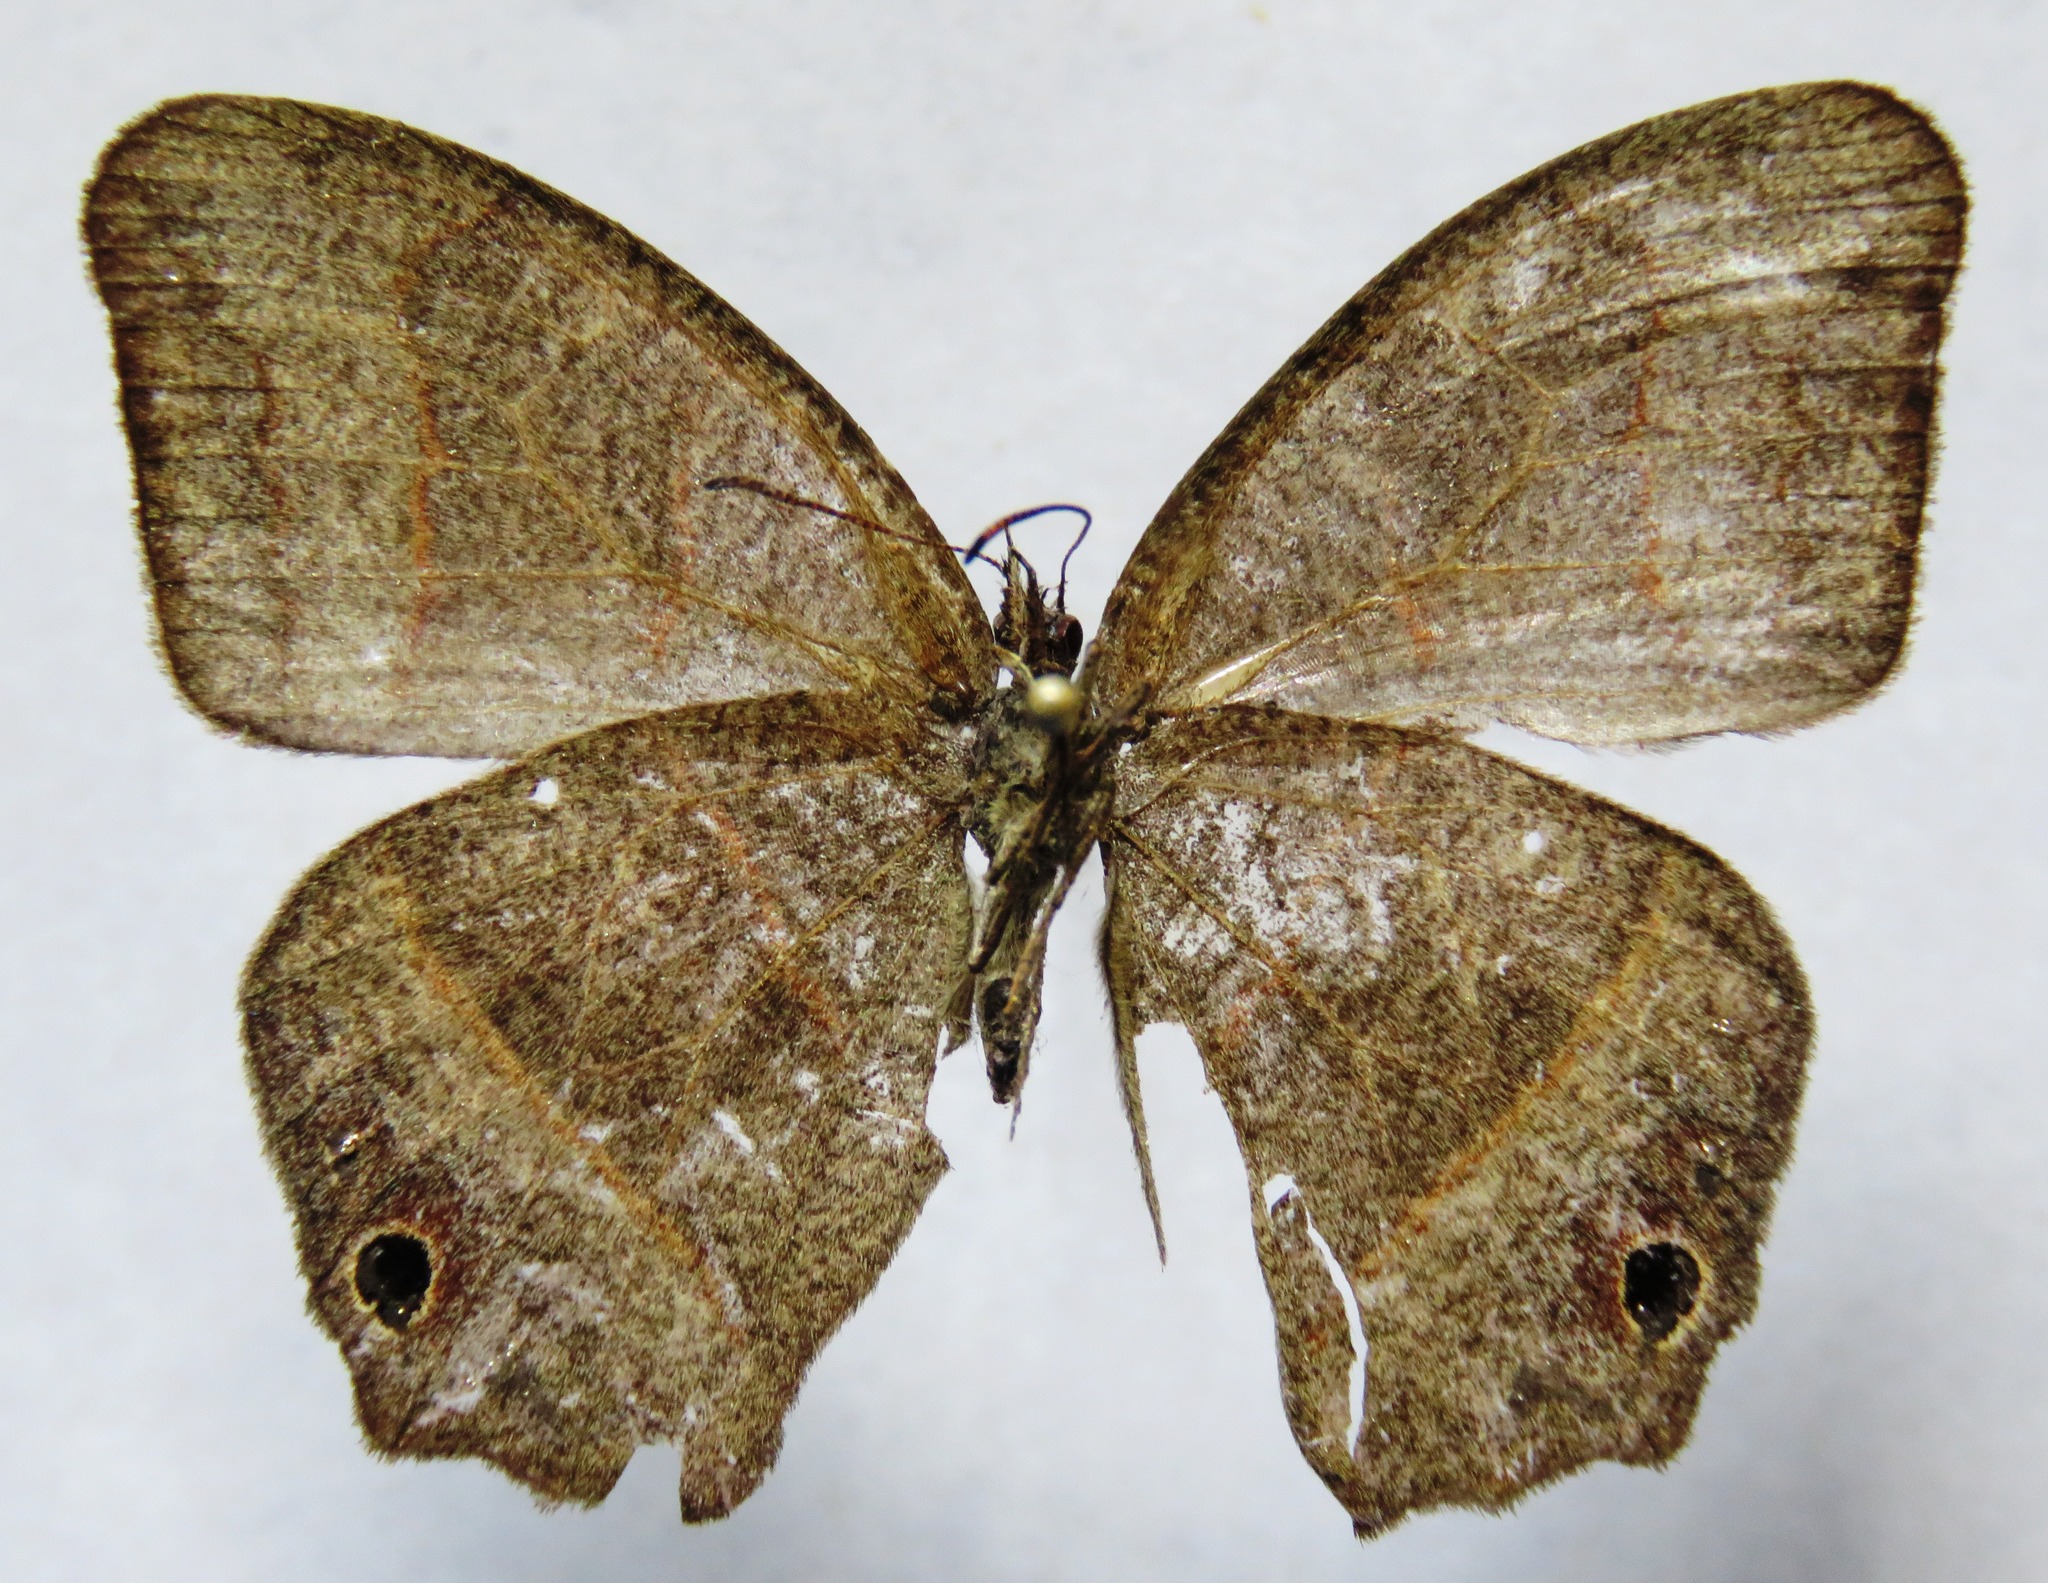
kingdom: Animalia
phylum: Arthropoda
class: Insecta
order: Lepidoptera
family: Nymphalidae
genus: Euptychia
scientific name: Euptychia Cyllopsis hedemanni
